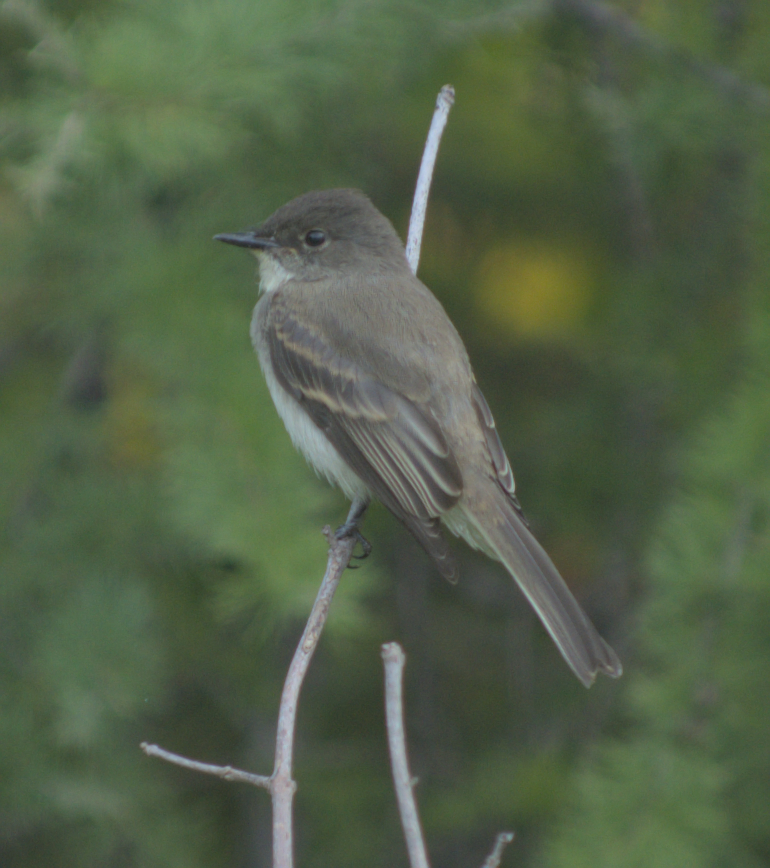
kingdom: Animalia
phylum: Chordata
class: Aves
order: Passeriformes
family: Tyrannidae
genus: Sayornis
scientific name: Sayornis phoebe
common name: Eastern phoebe
